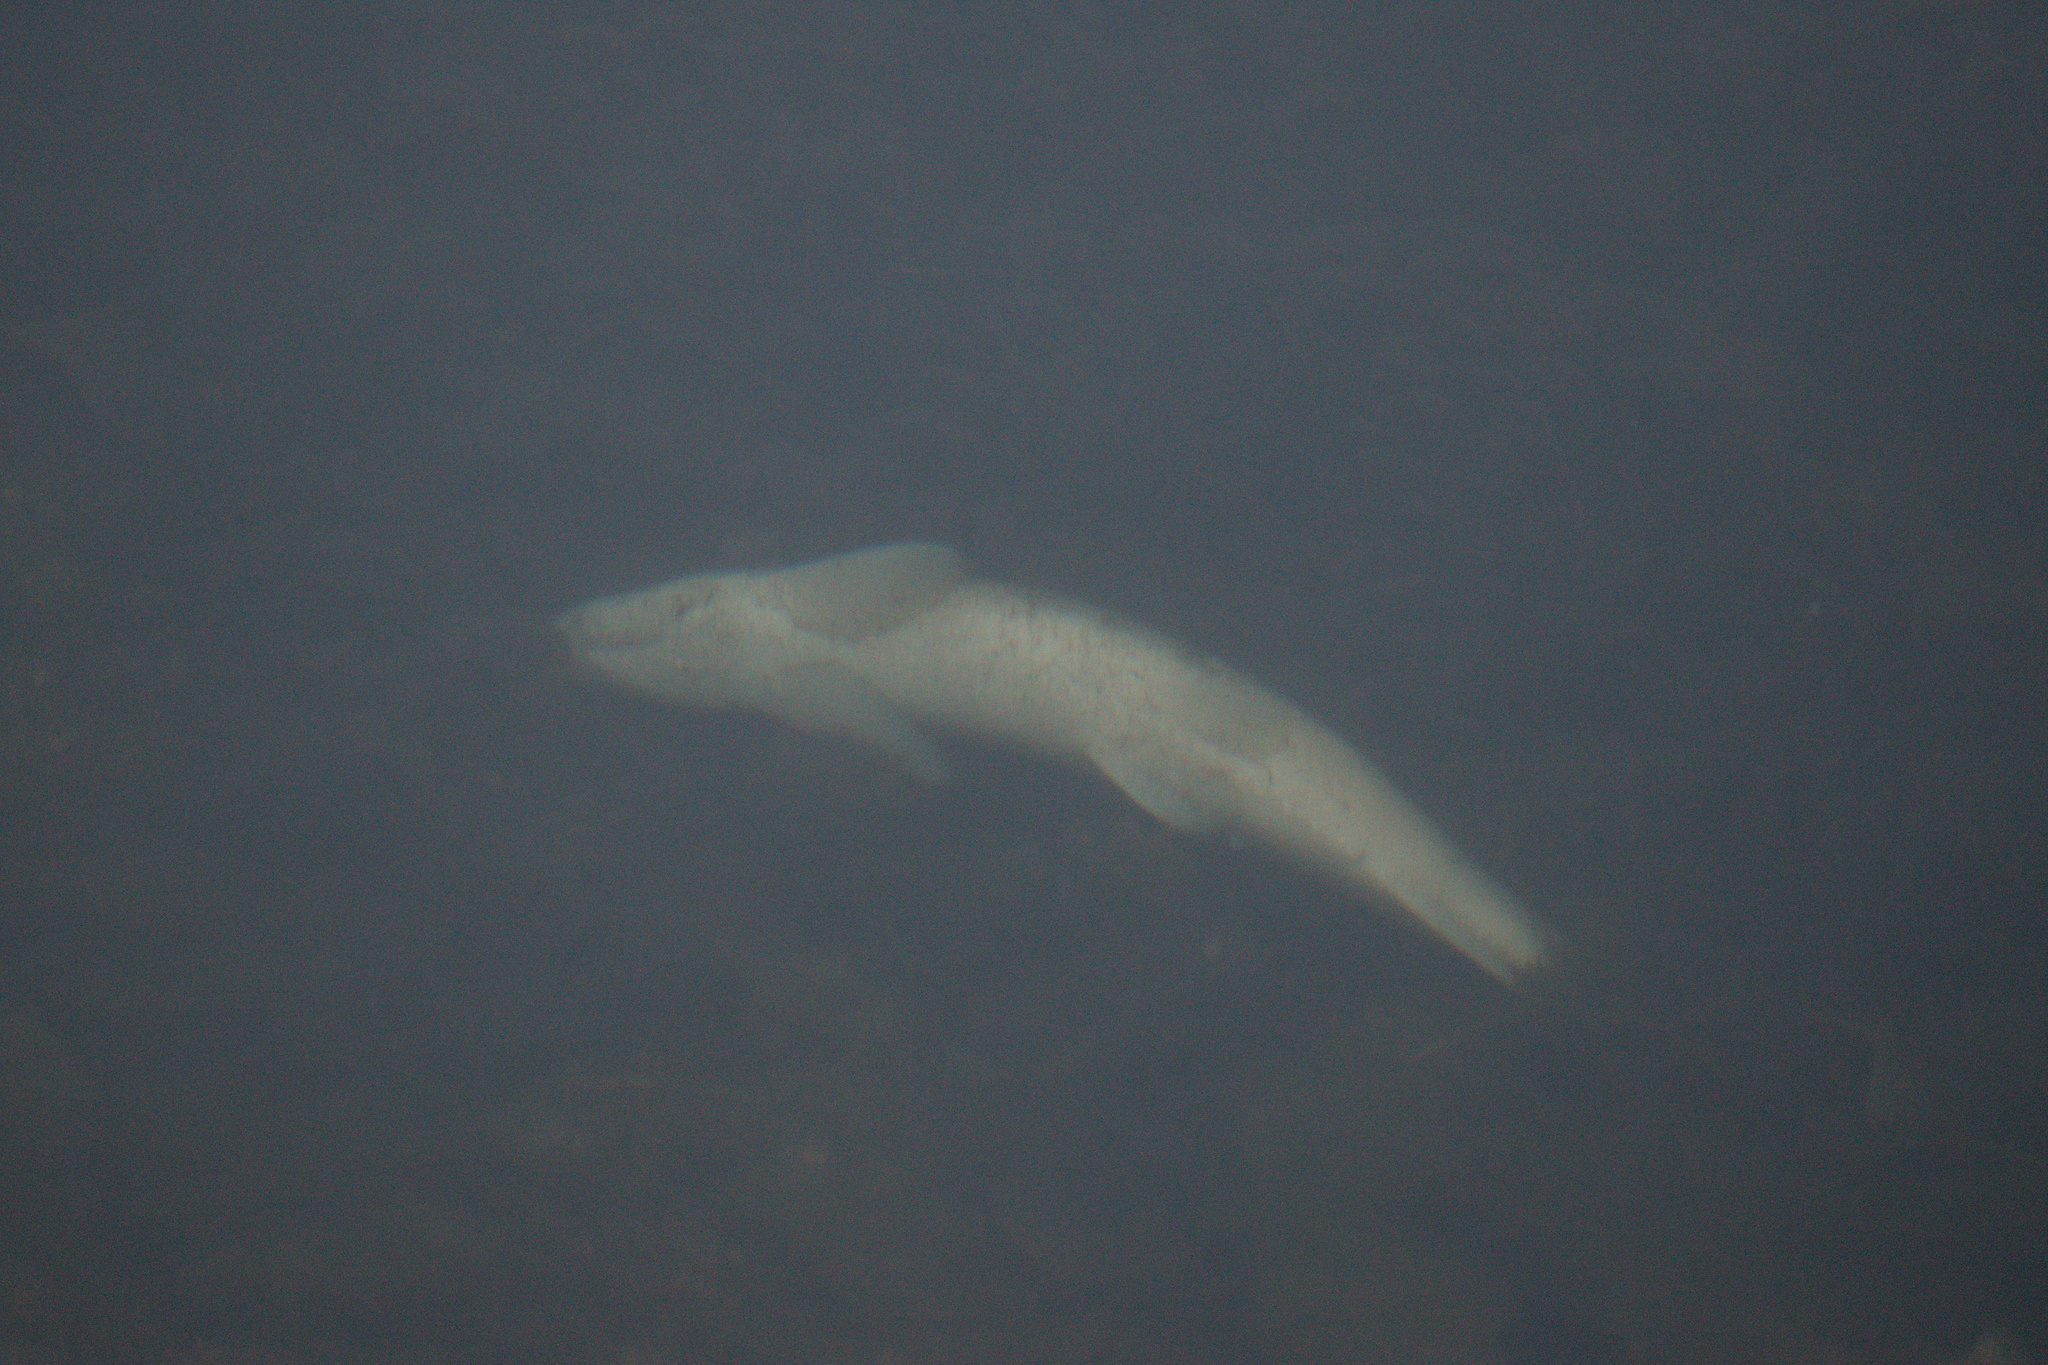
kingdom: Animalia
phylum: Chordata
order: Cypriniformes
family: Catostomidae
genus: Catostomus
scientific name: Catostomus commersonii
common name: White sucker
